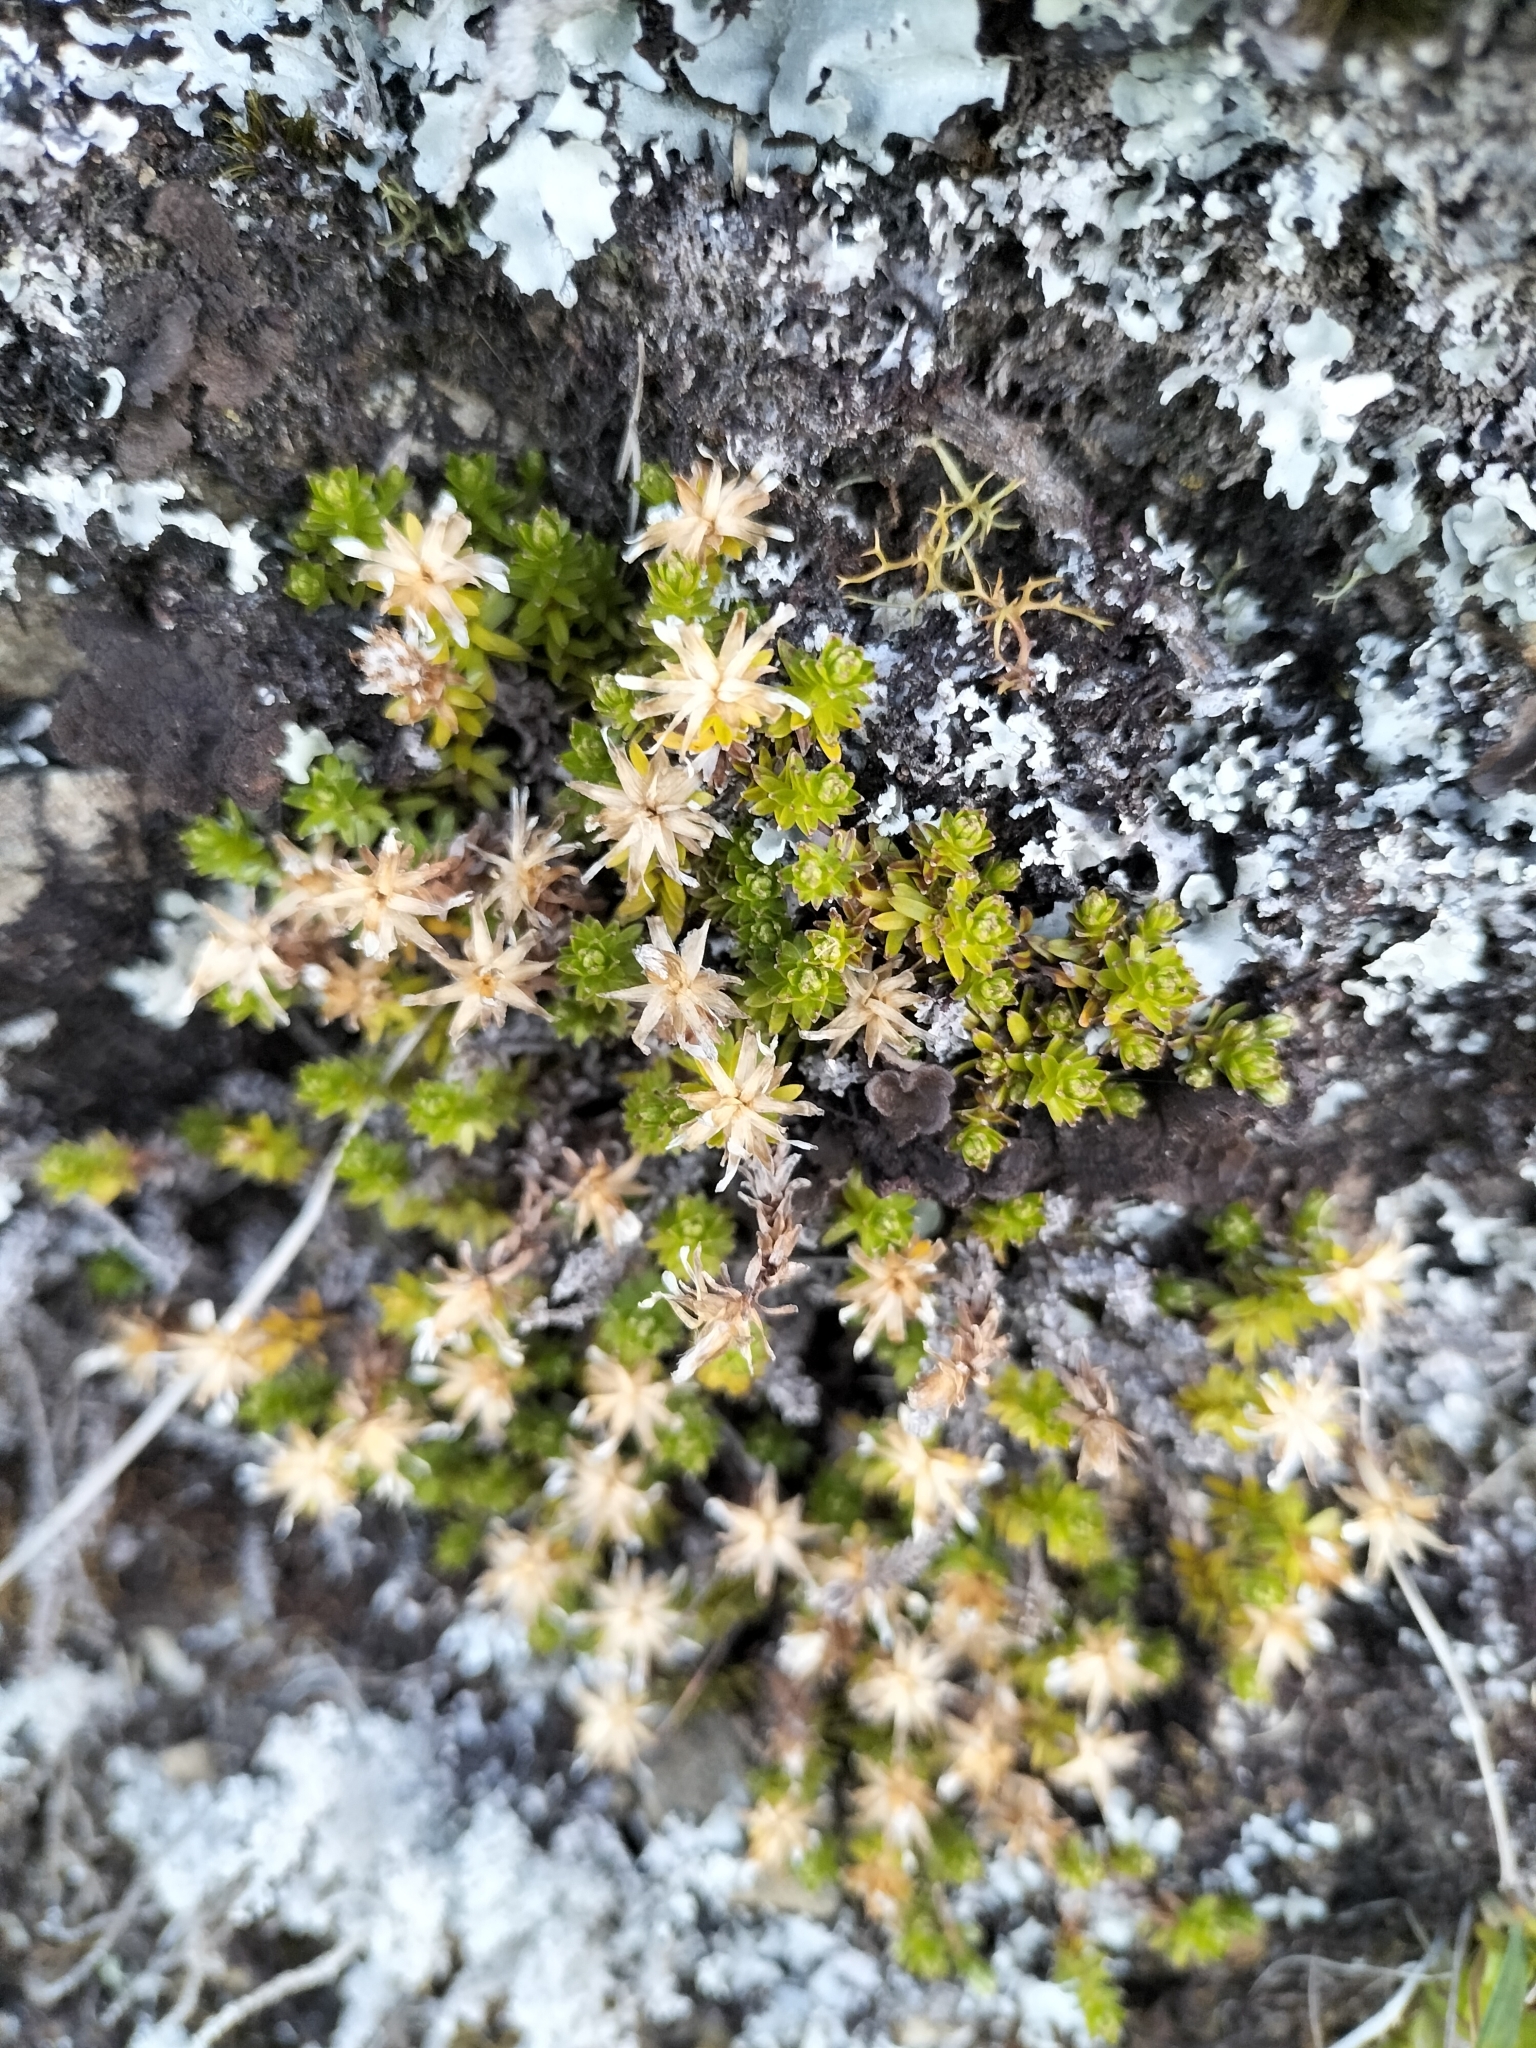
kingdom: Plantae
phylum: Tracheophyta
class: Magnoliopsida
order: Asterales
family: Asteraceae
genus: Raoulia
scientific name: Raoulia glabra
